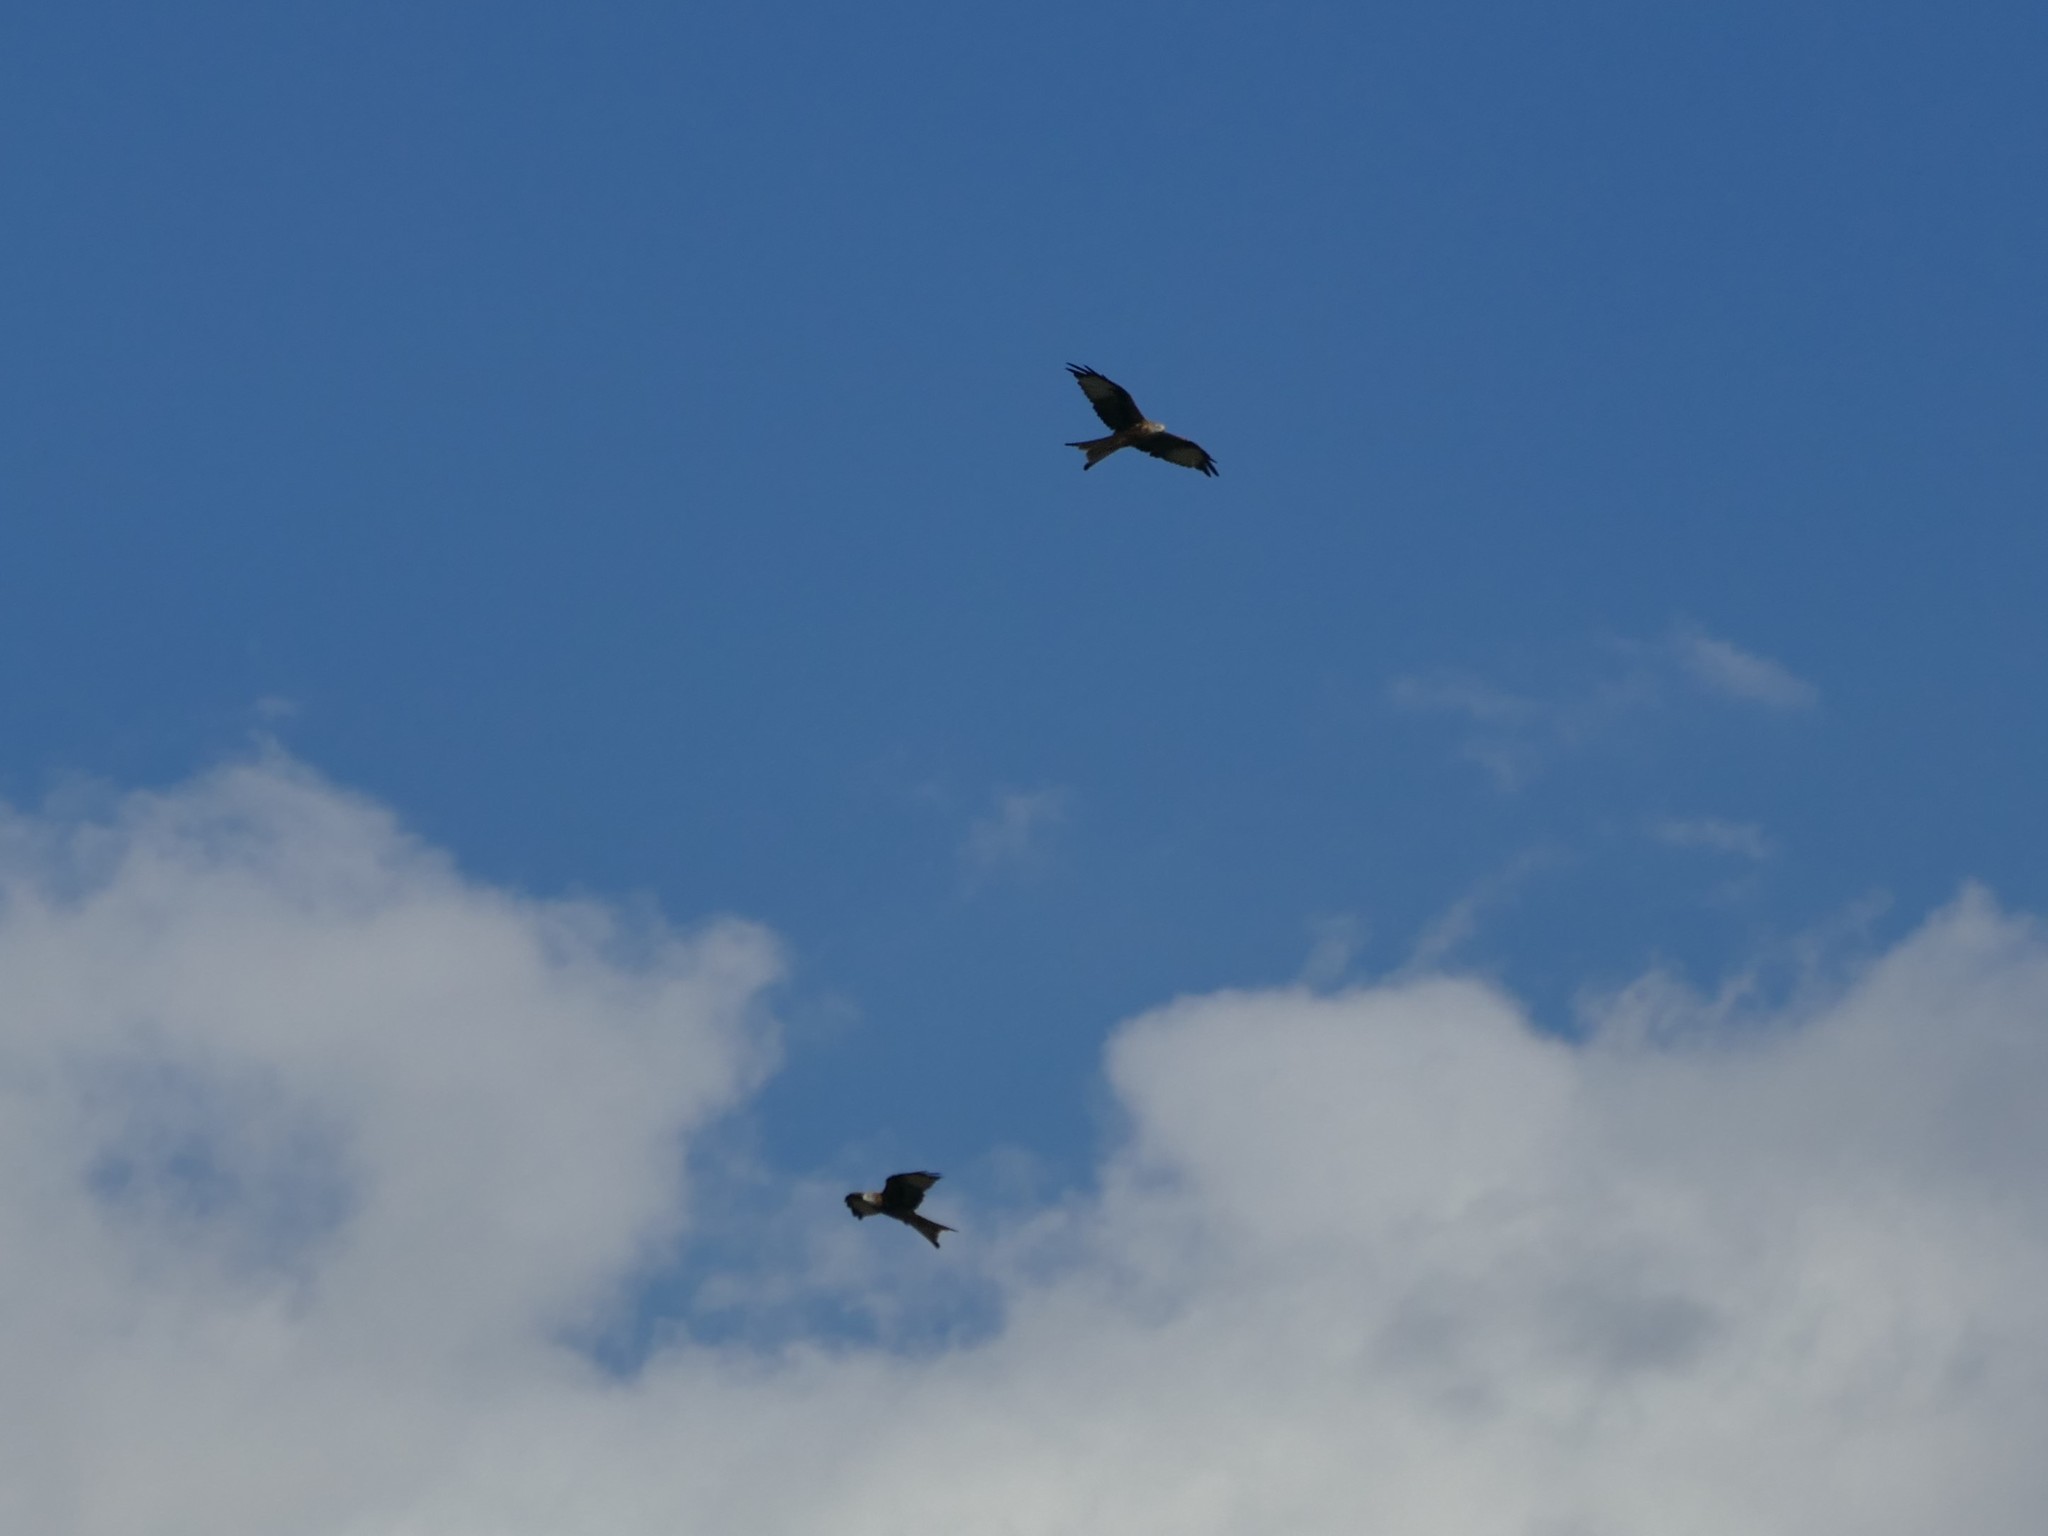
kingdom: Animalia
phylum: Chordata
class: Aves
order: Accipitriformes
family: Accipitridae
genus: Milvus
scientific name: Milvus milvus
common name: Red kite
